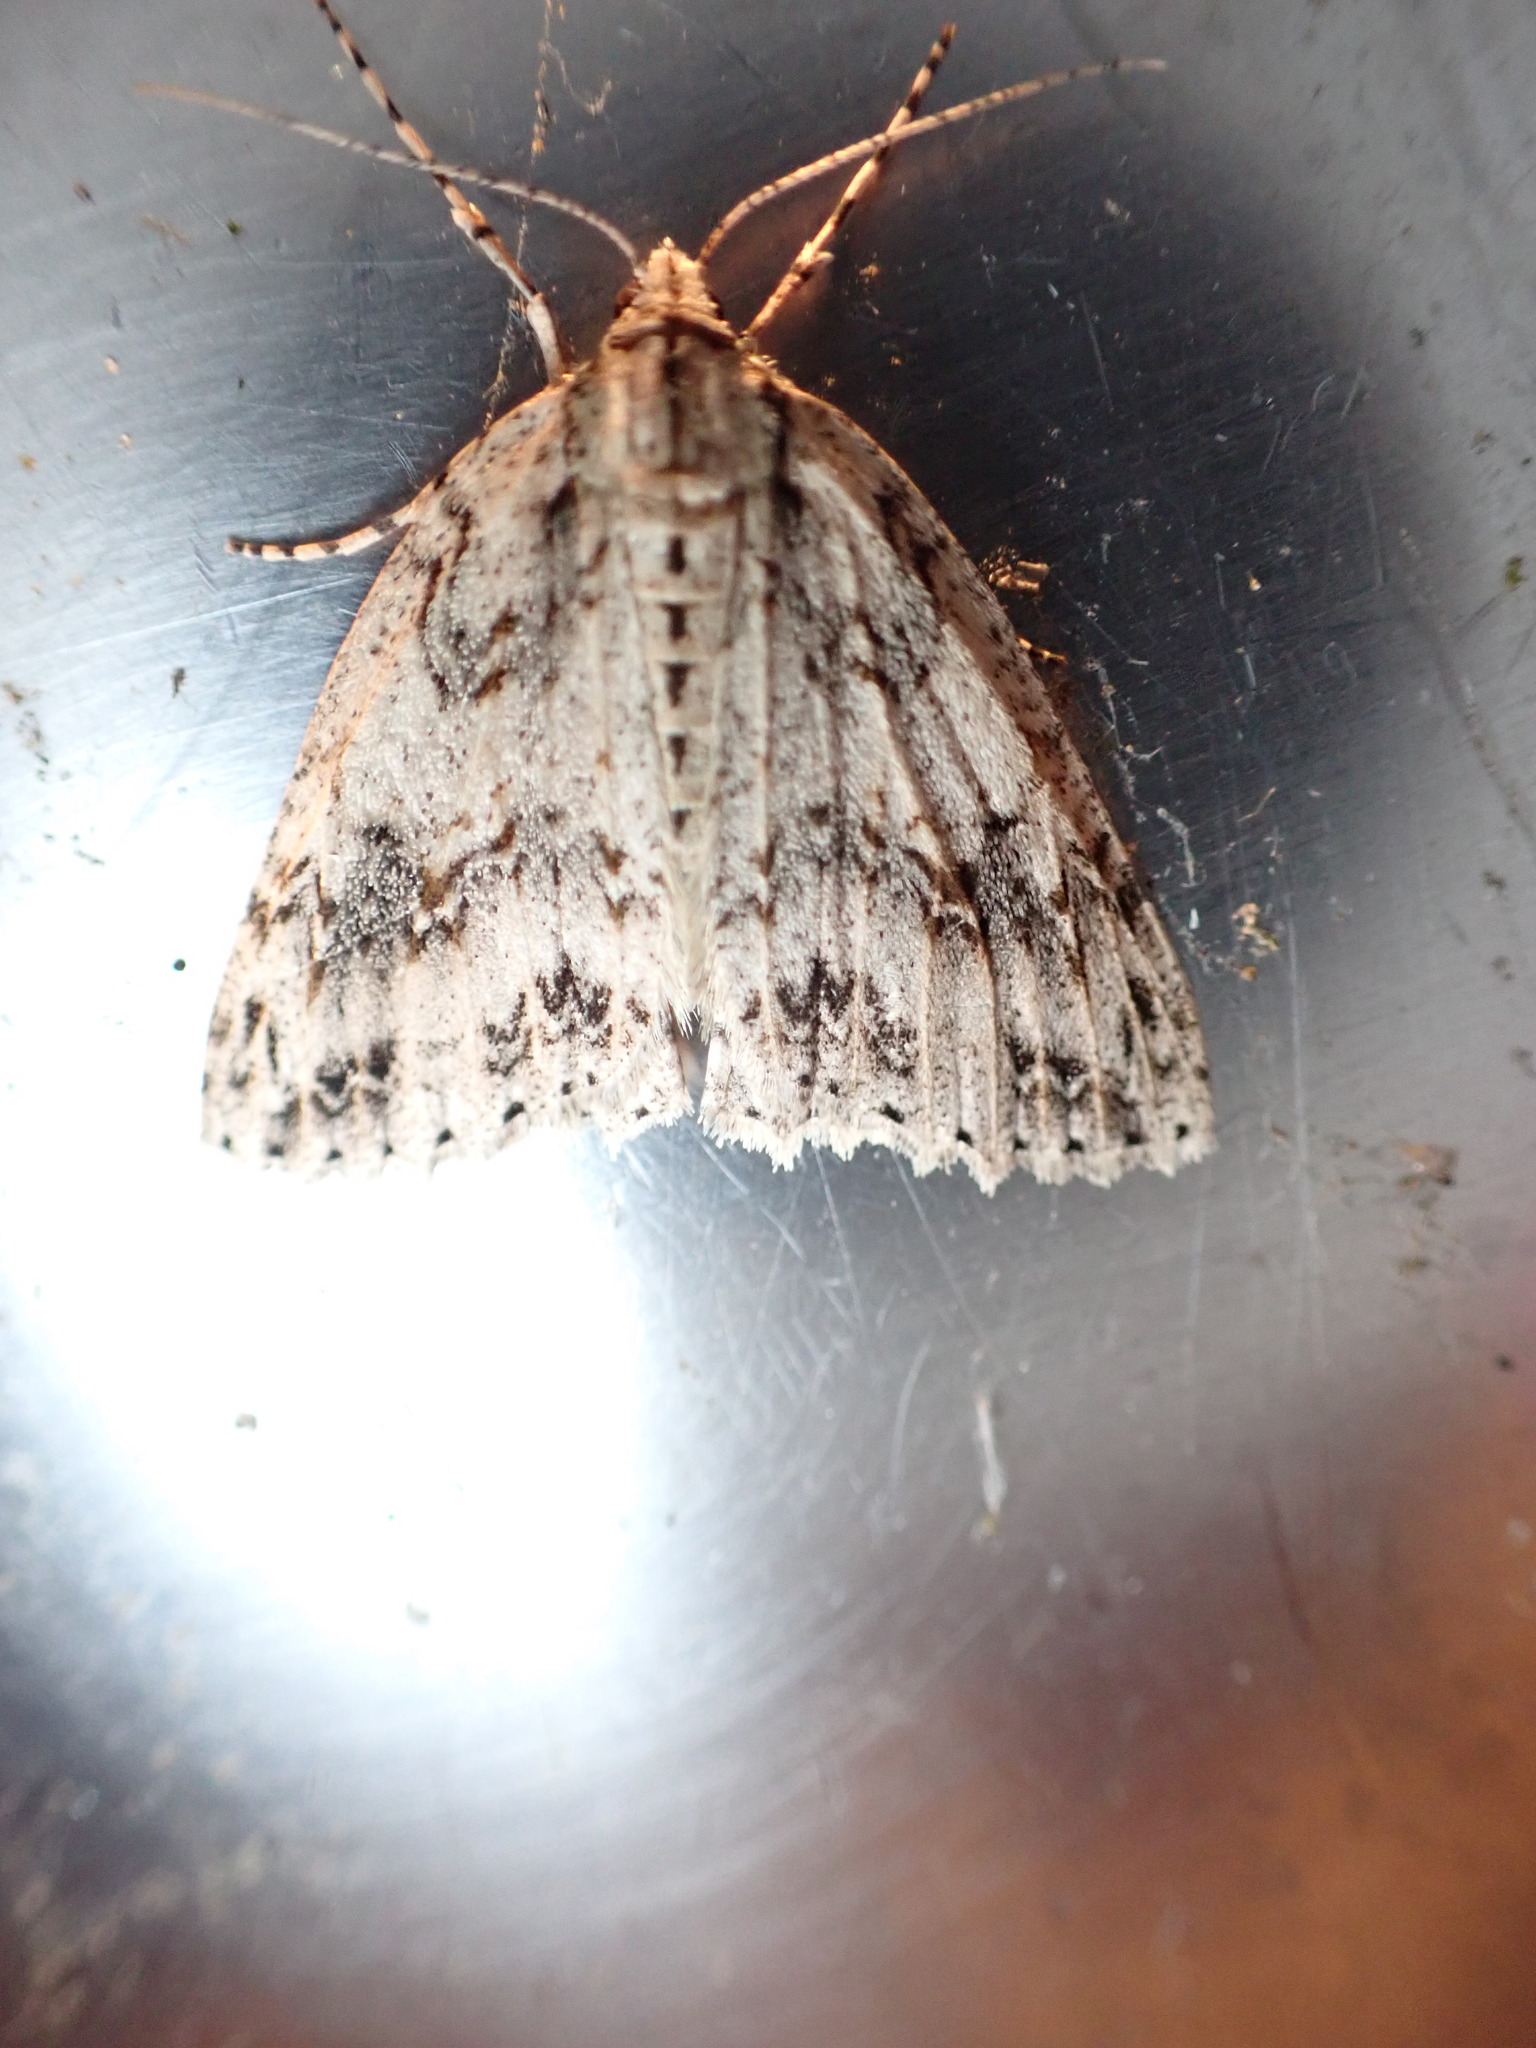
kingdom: Animalia
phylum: Arthropoda
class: Insecta
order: Lepidoptera
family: Geometridae
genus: Pseudocoremia
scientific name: Pseudocoremia rudisata
